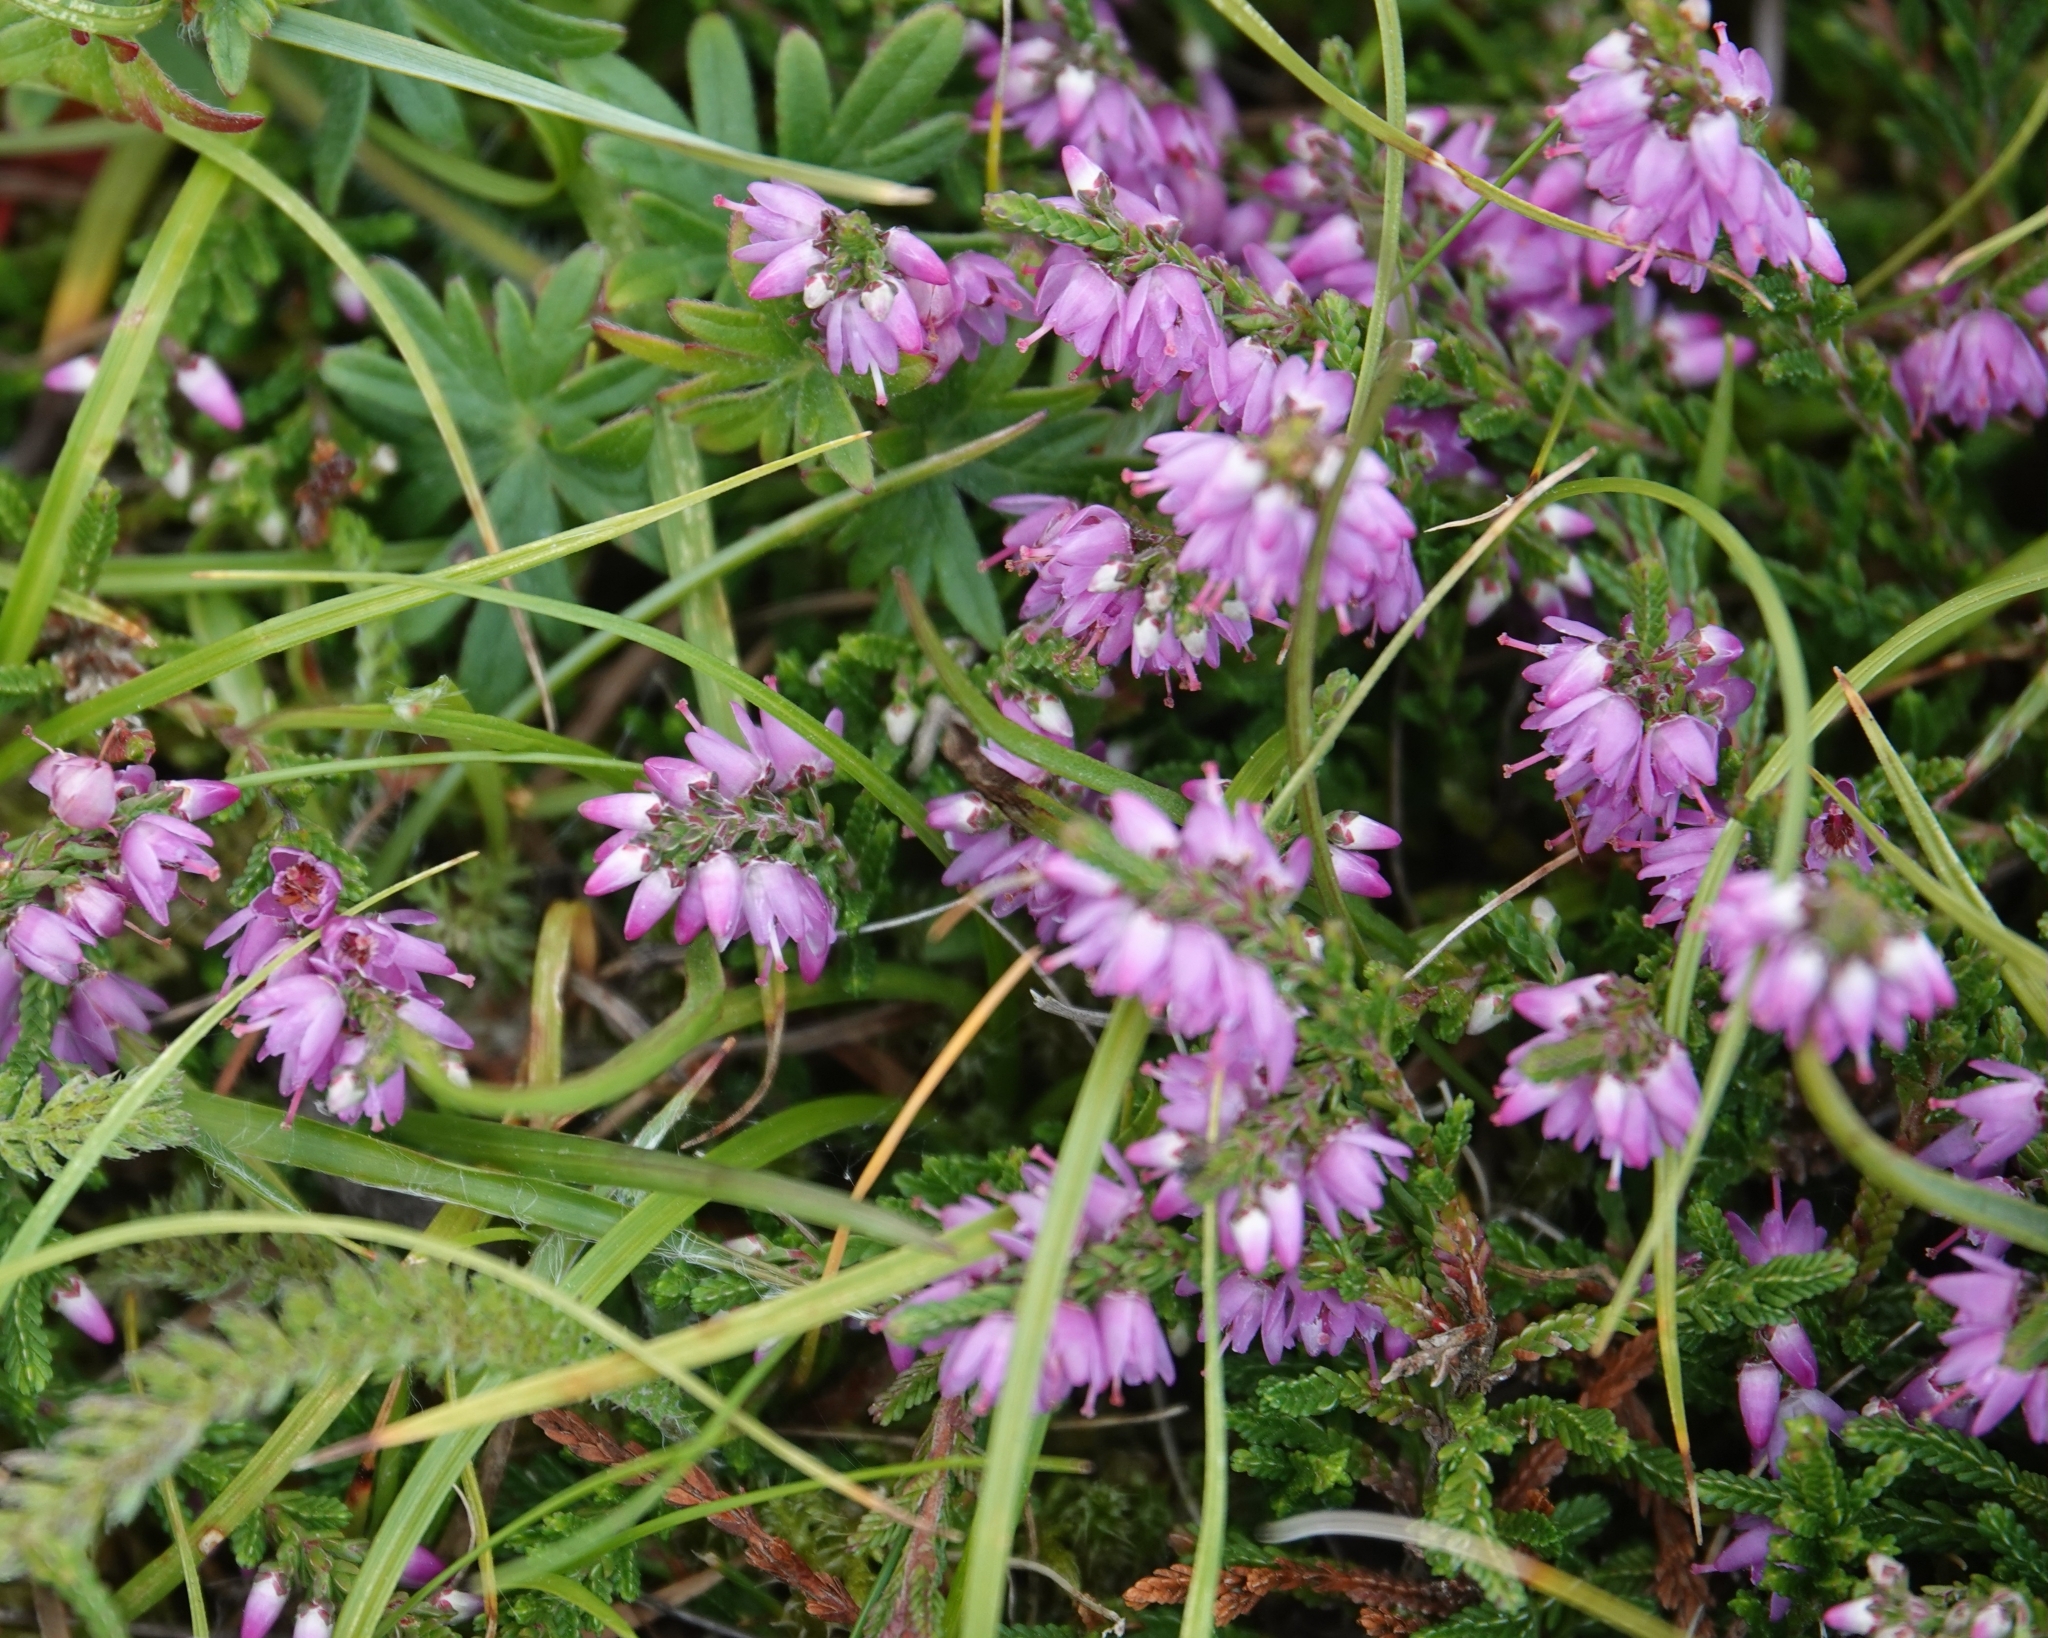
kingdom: Plantae
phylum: Tracheophyta
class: Magnoliopsida
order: Ericales
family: Ericaceae
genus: Calluna
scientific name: Calluna vulgaris
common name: Heather
